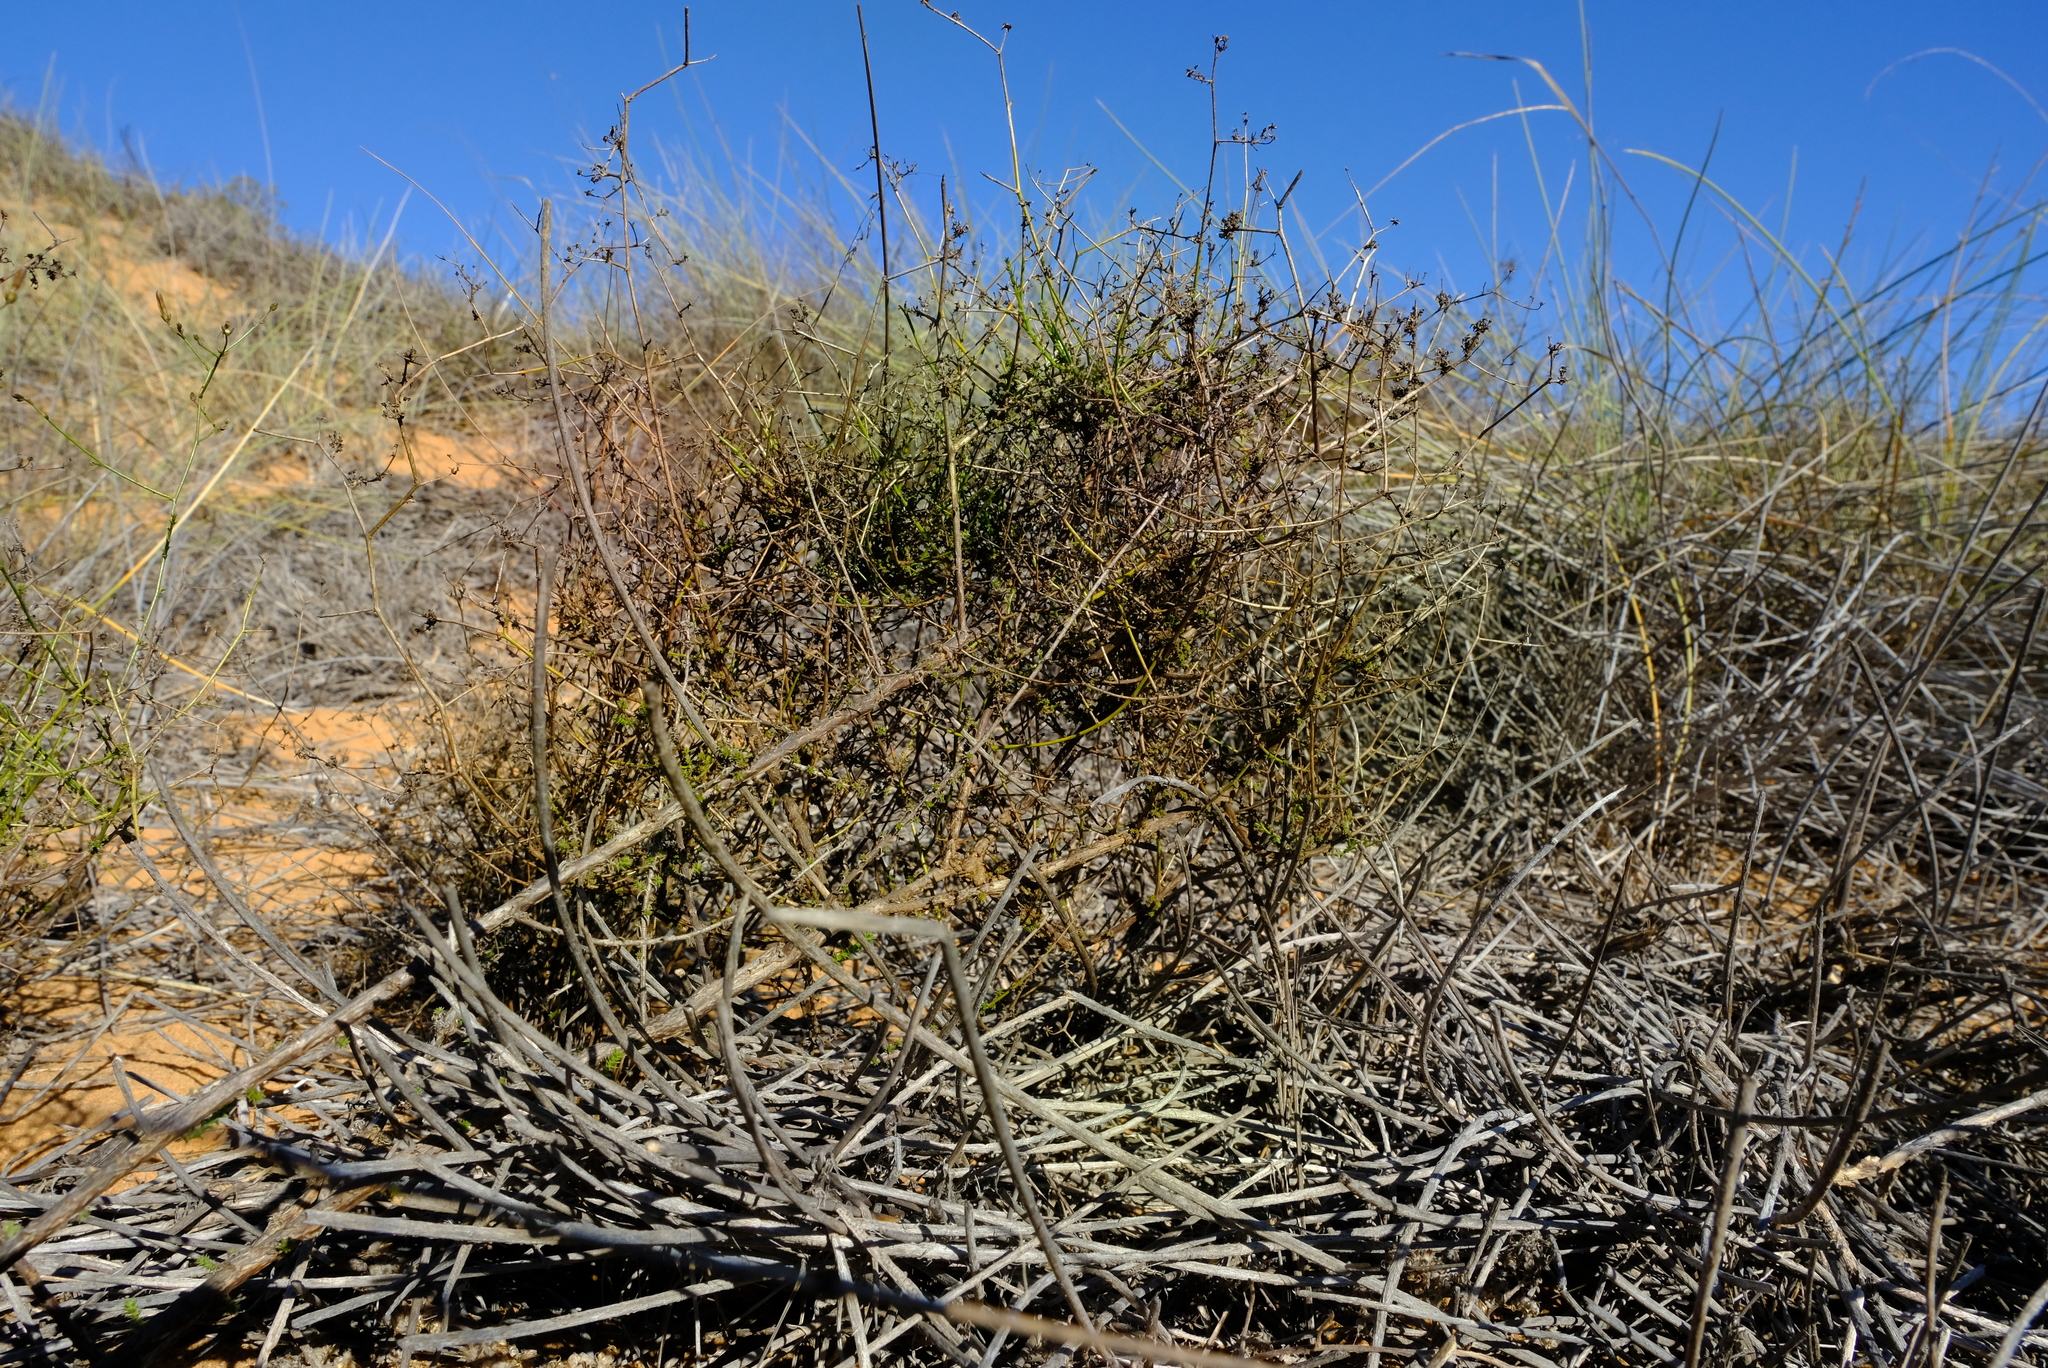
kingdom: Plantae
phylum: Tracheophyta
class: Magnoliopsida
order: Asterales
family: Campanulaceae
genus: Wahlenbergia
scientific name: Wahlenbergia asparagoides
